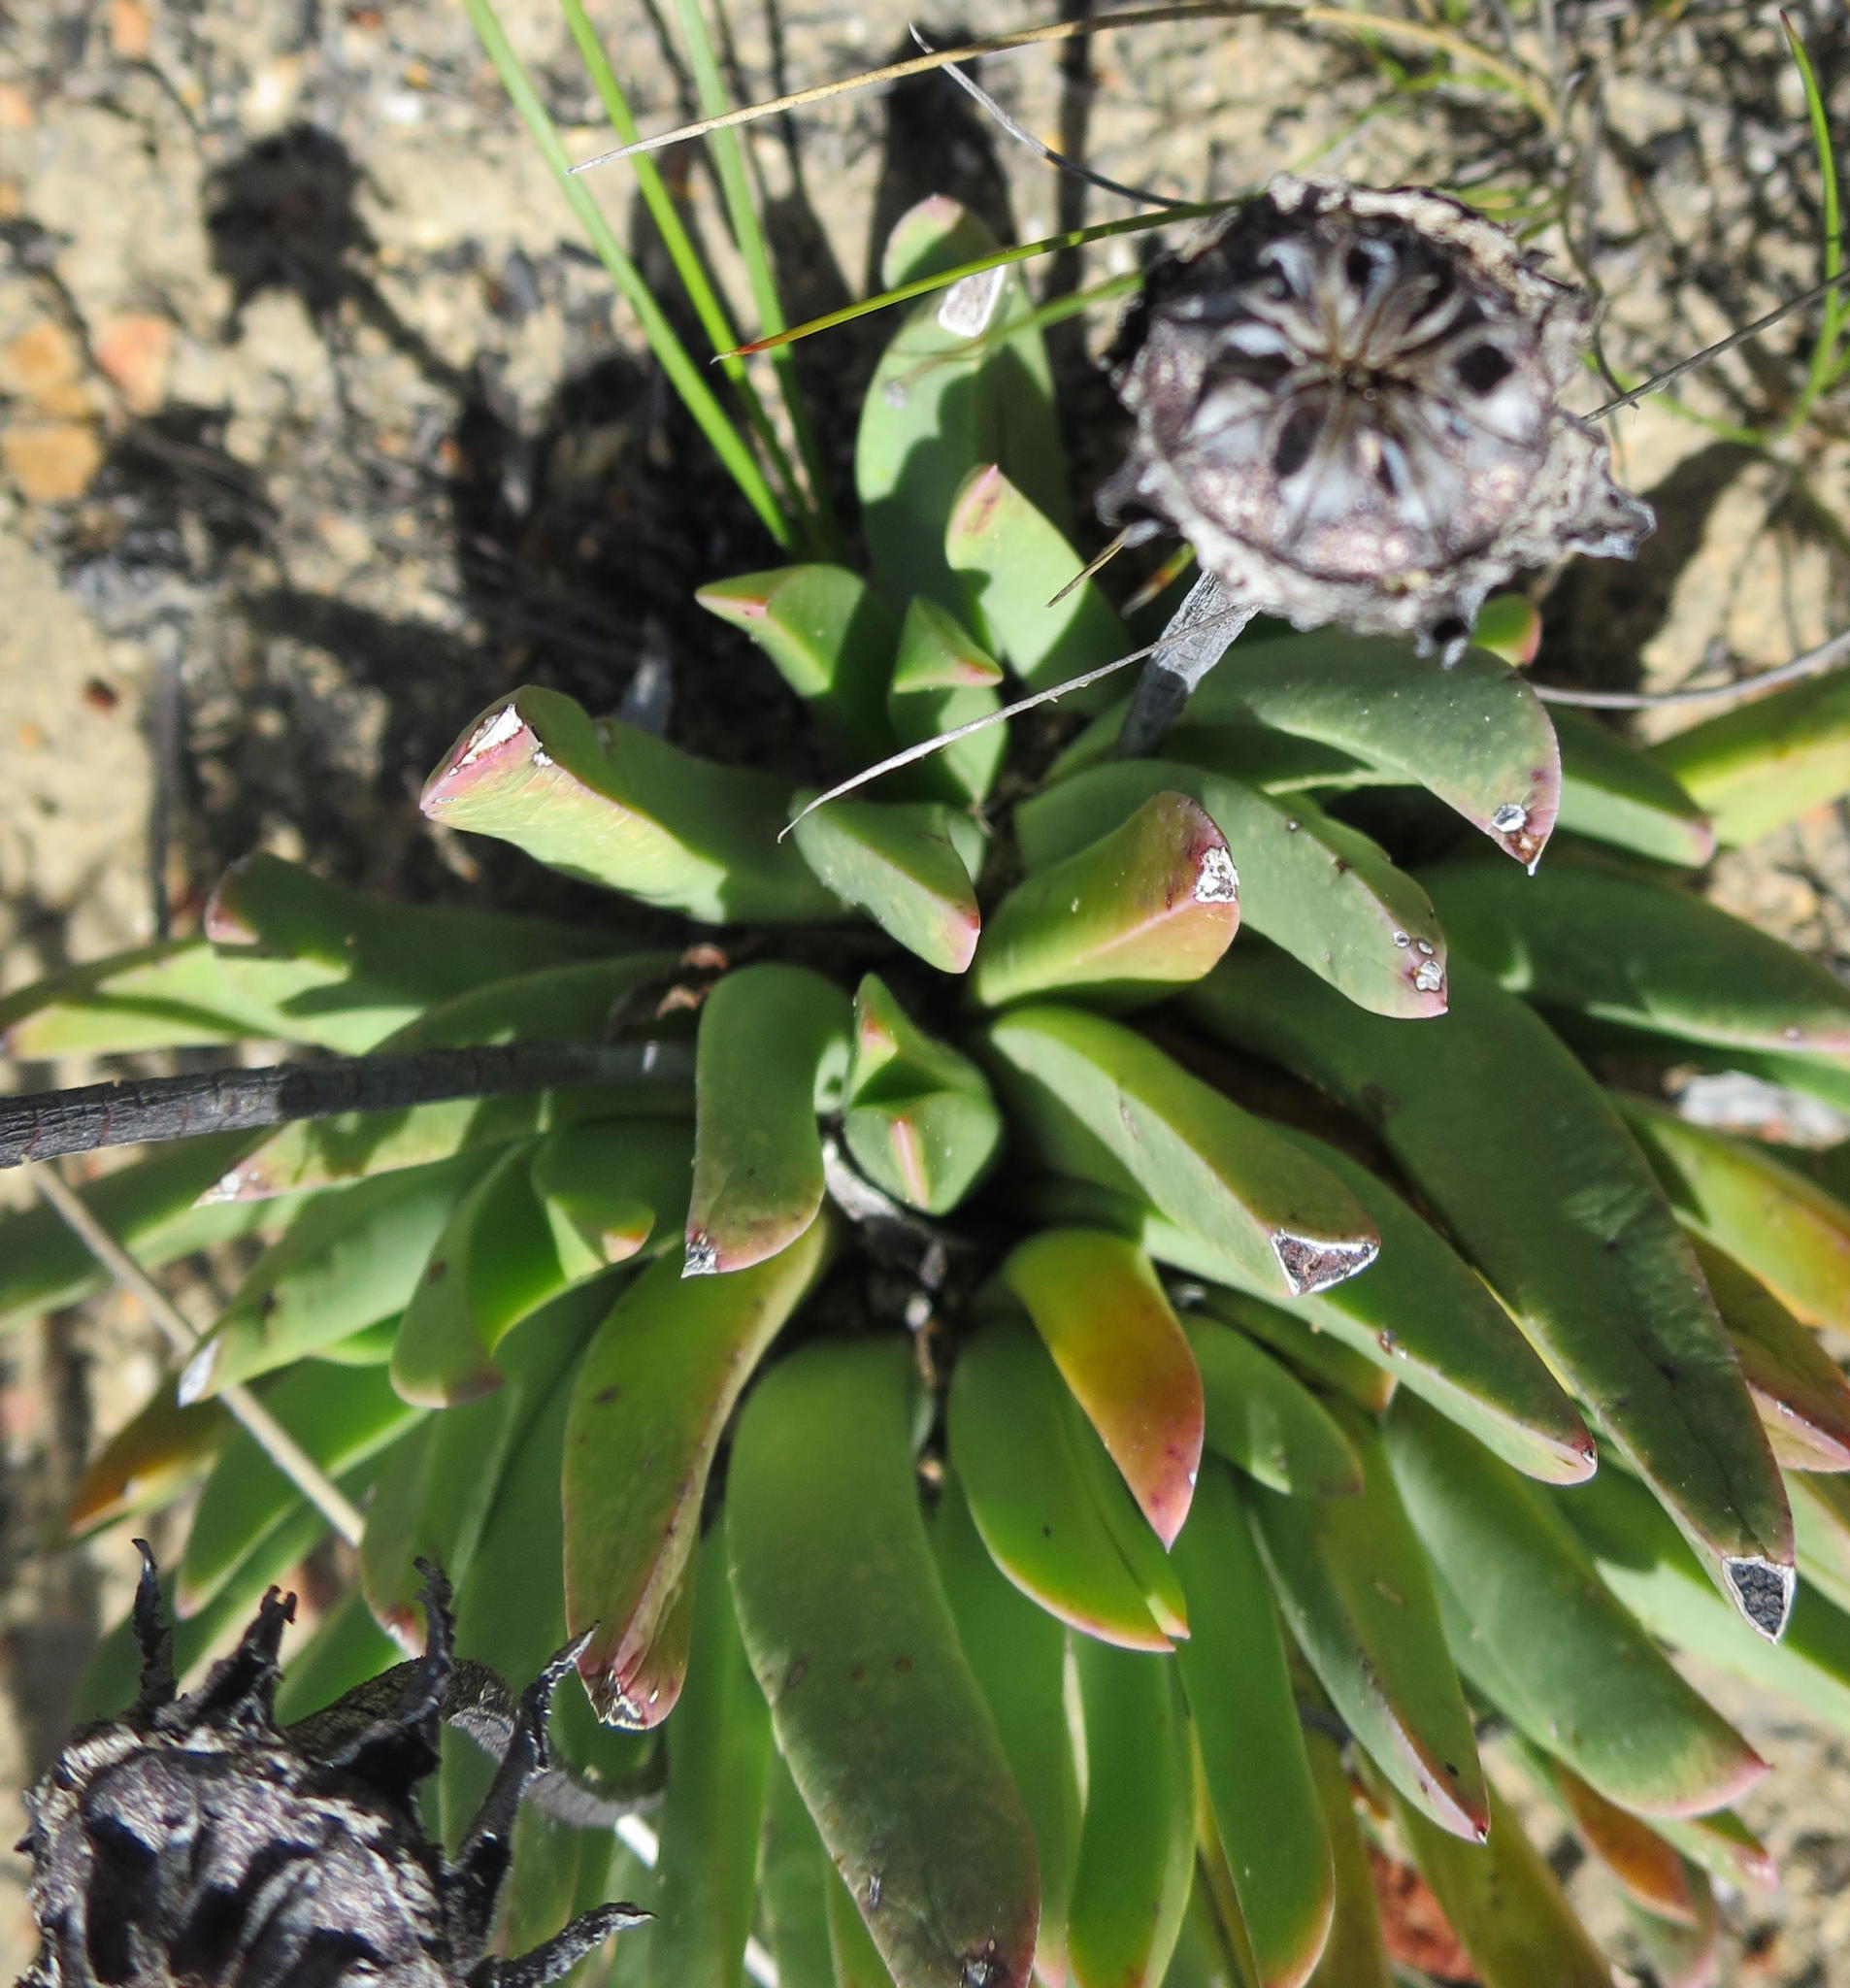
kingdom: Plantae
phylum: Tracheophyta
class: Magnoliopsida
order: Caryophyllales
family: Aizoaceae
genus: Machairophyllum
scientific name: Machairophyllum bijlii
